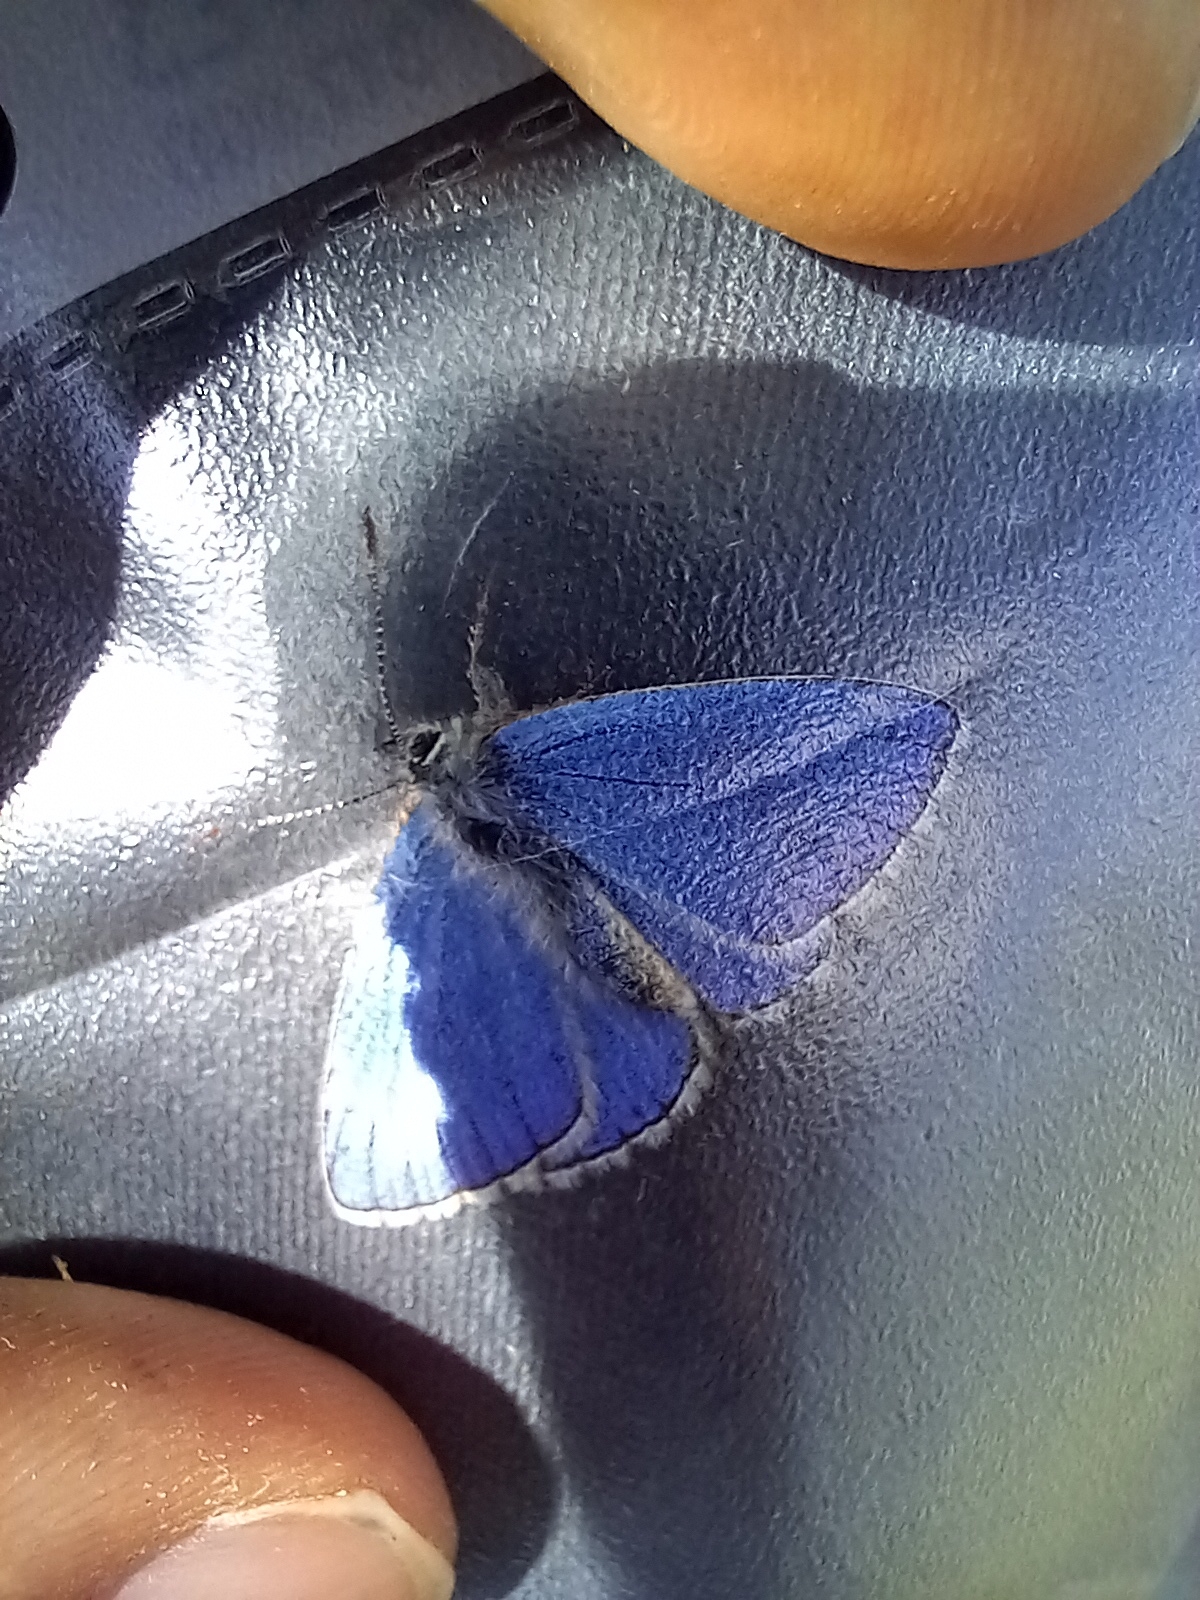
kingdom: Animalia
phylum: Arthropoda
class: Insecta
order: Lepidoptera
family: Lycaenidae
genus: Lysandra
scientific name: Lysandra bellargus
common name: Adonis blue
